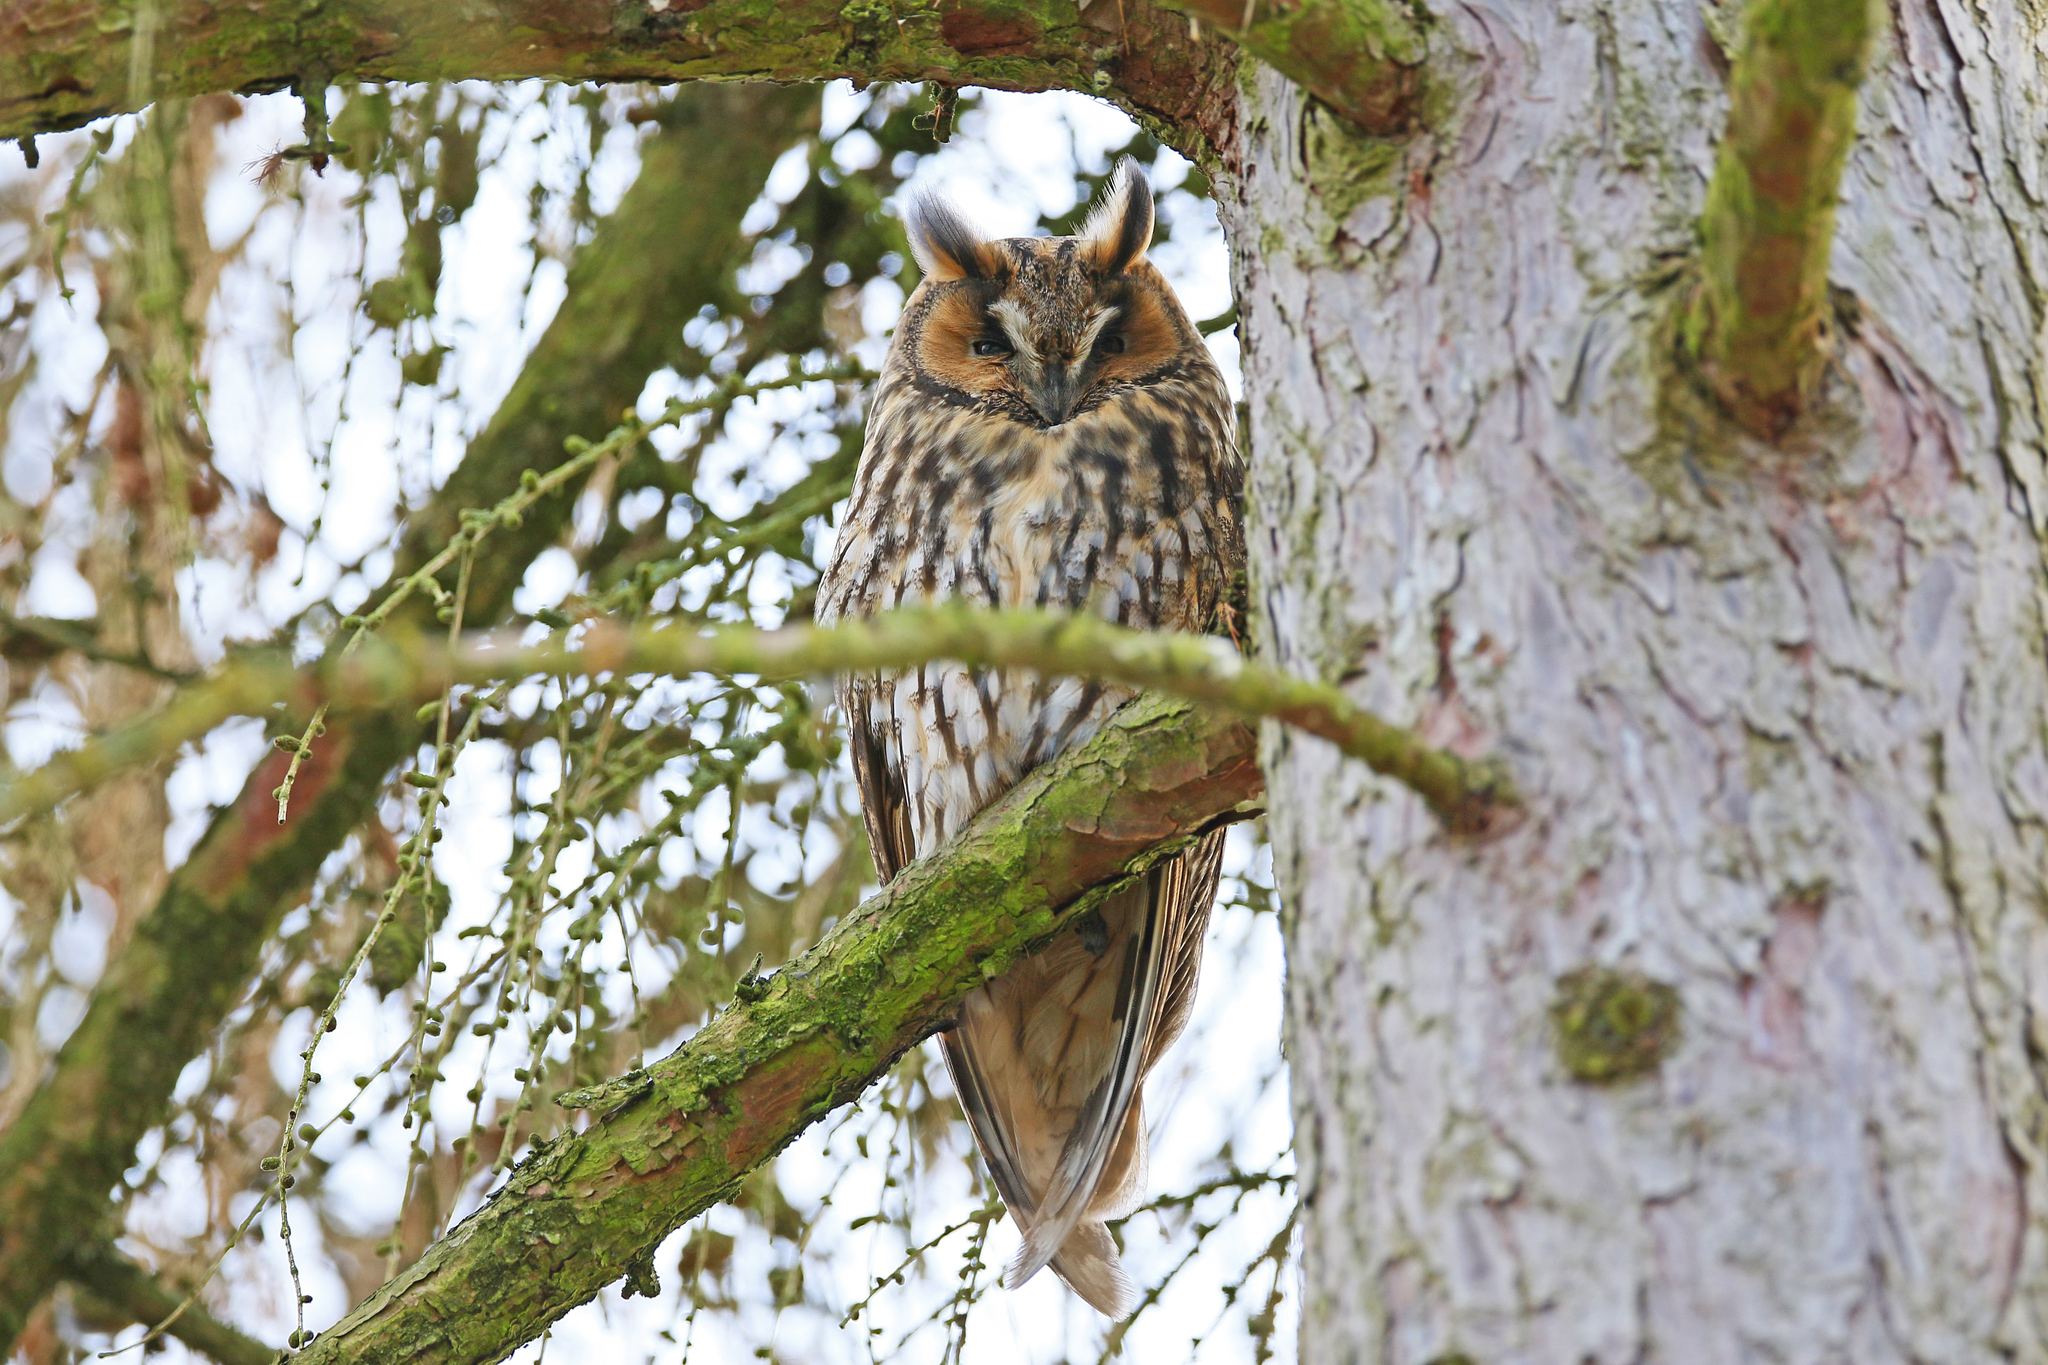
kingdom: Animalia
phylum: Chordata
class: Aves
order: Strigiformes
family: Strigidae
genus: Asio
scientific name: Asio otus
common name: Long-eared owl
